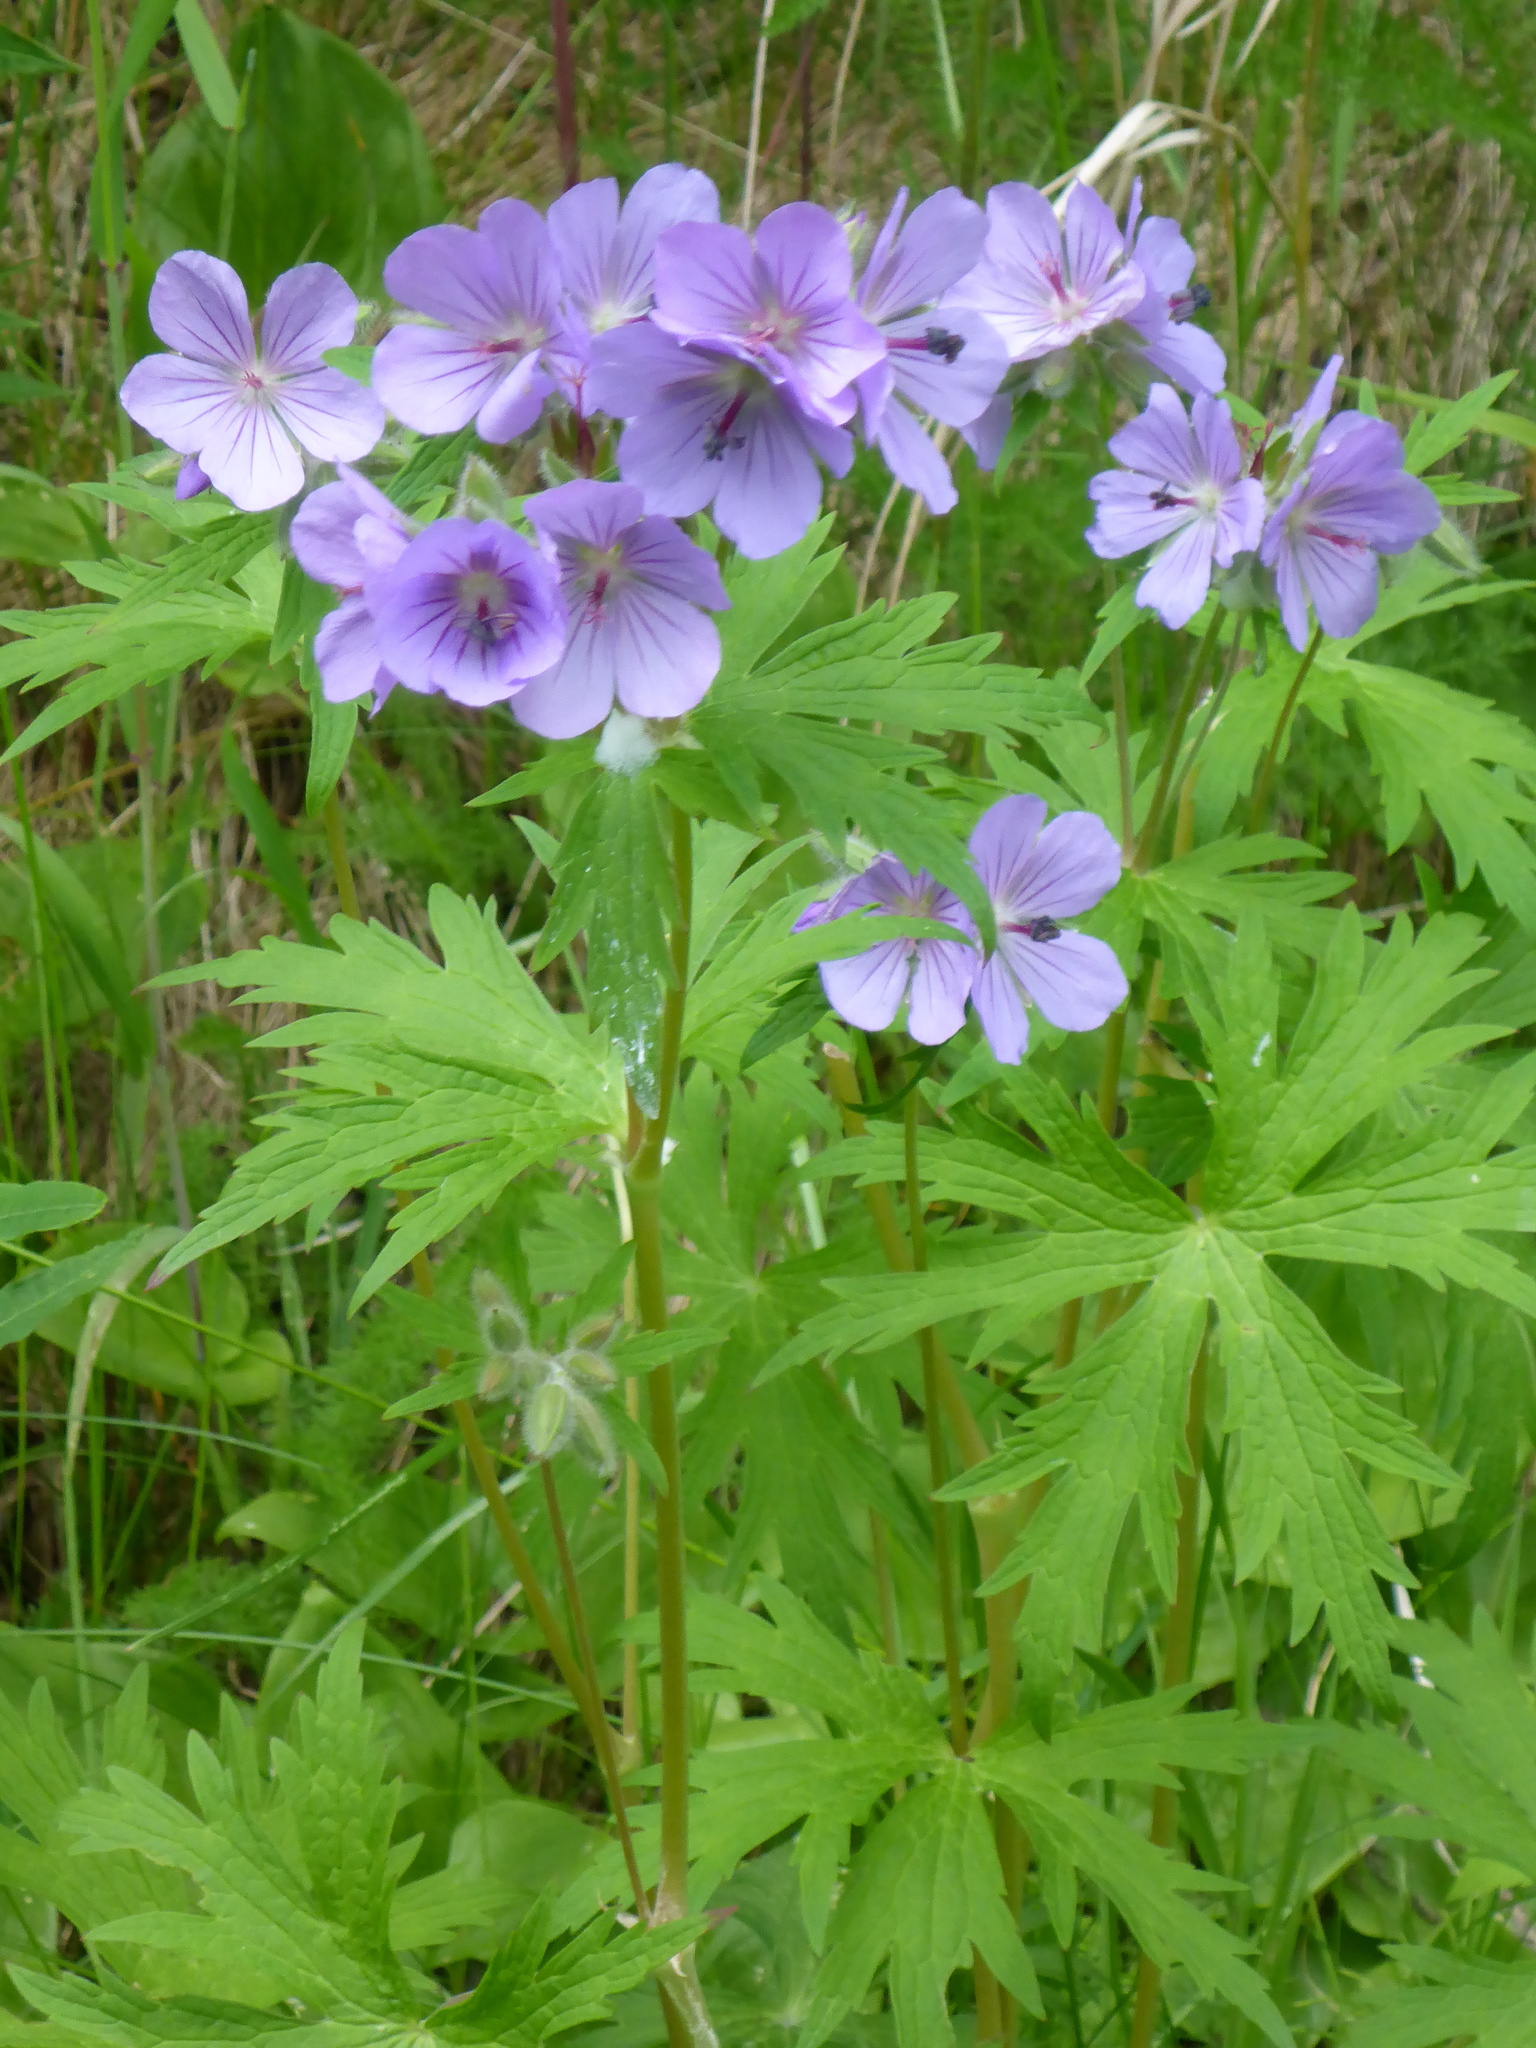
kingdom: Plantae
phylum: Tracheophyta
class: Magnoliopsida
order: Geraniales
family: Geraniaceae
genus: Geranium
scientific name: Geranium erianthum
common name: Northern crane's-bill
